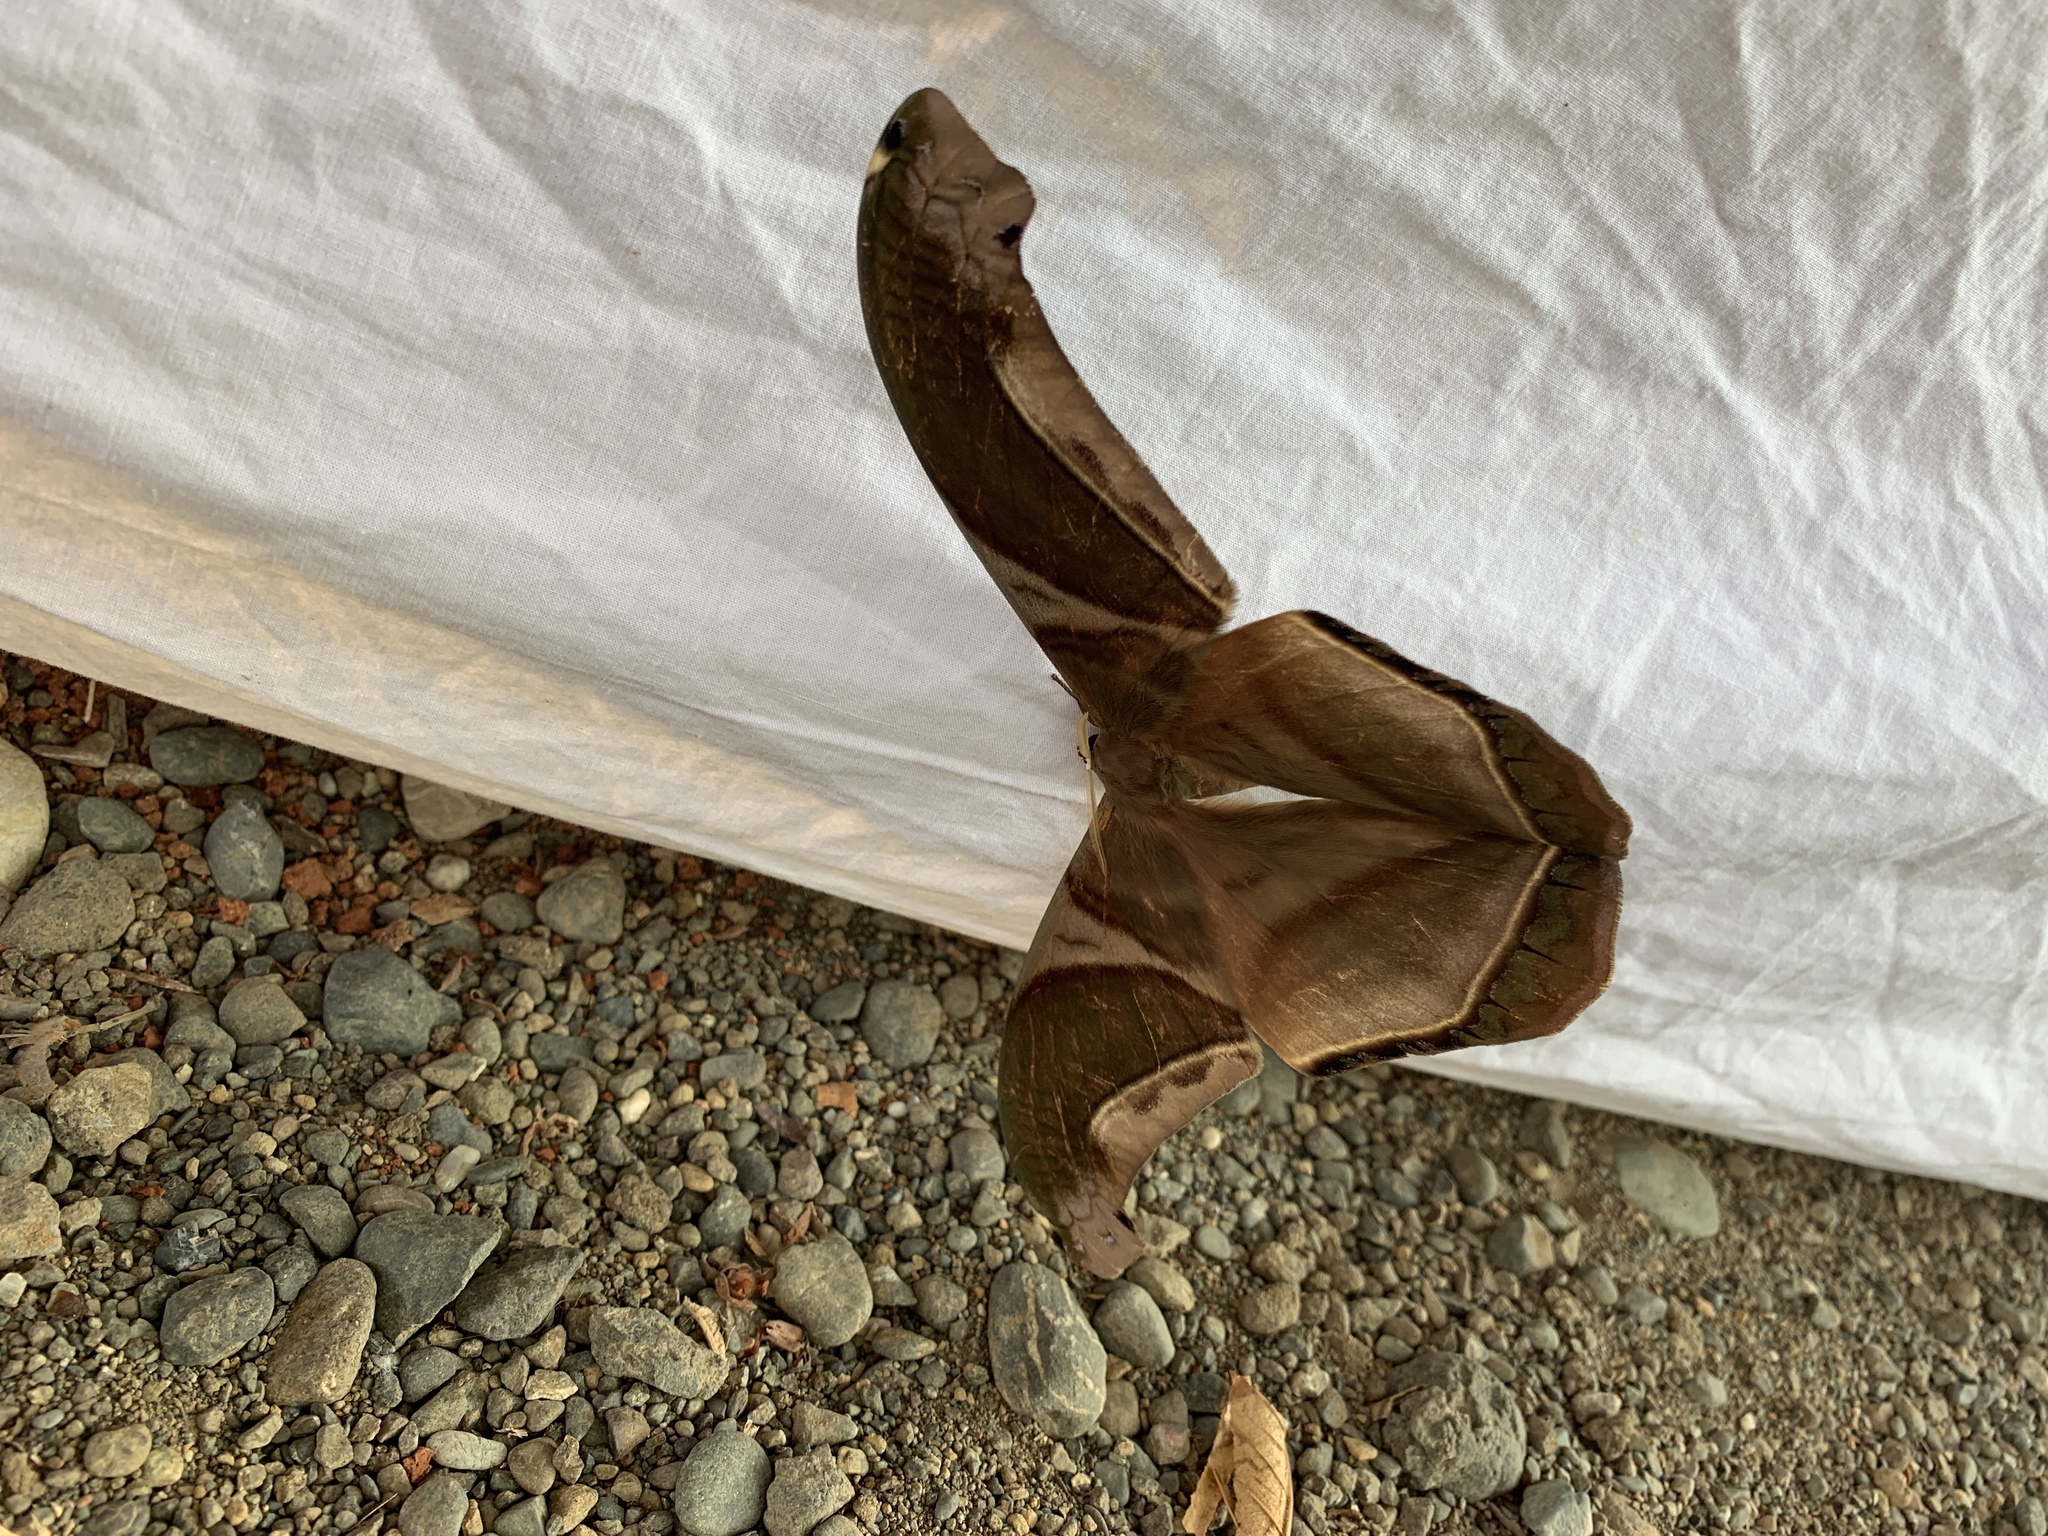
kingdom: Animalia
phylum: Arthropoda
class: Insecta
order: Lepidoptera
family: Saturniidae
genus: Rhescyntis
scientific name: Rhescyntis hippodamia
